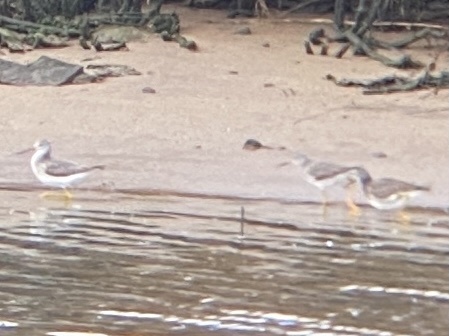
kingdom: Animalia
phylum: Chordata
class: Aves
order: Charadriiformes
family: Scolopacidae
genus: Tringa
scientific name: Tringa melanoleuca
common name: Greater yellowlegs
